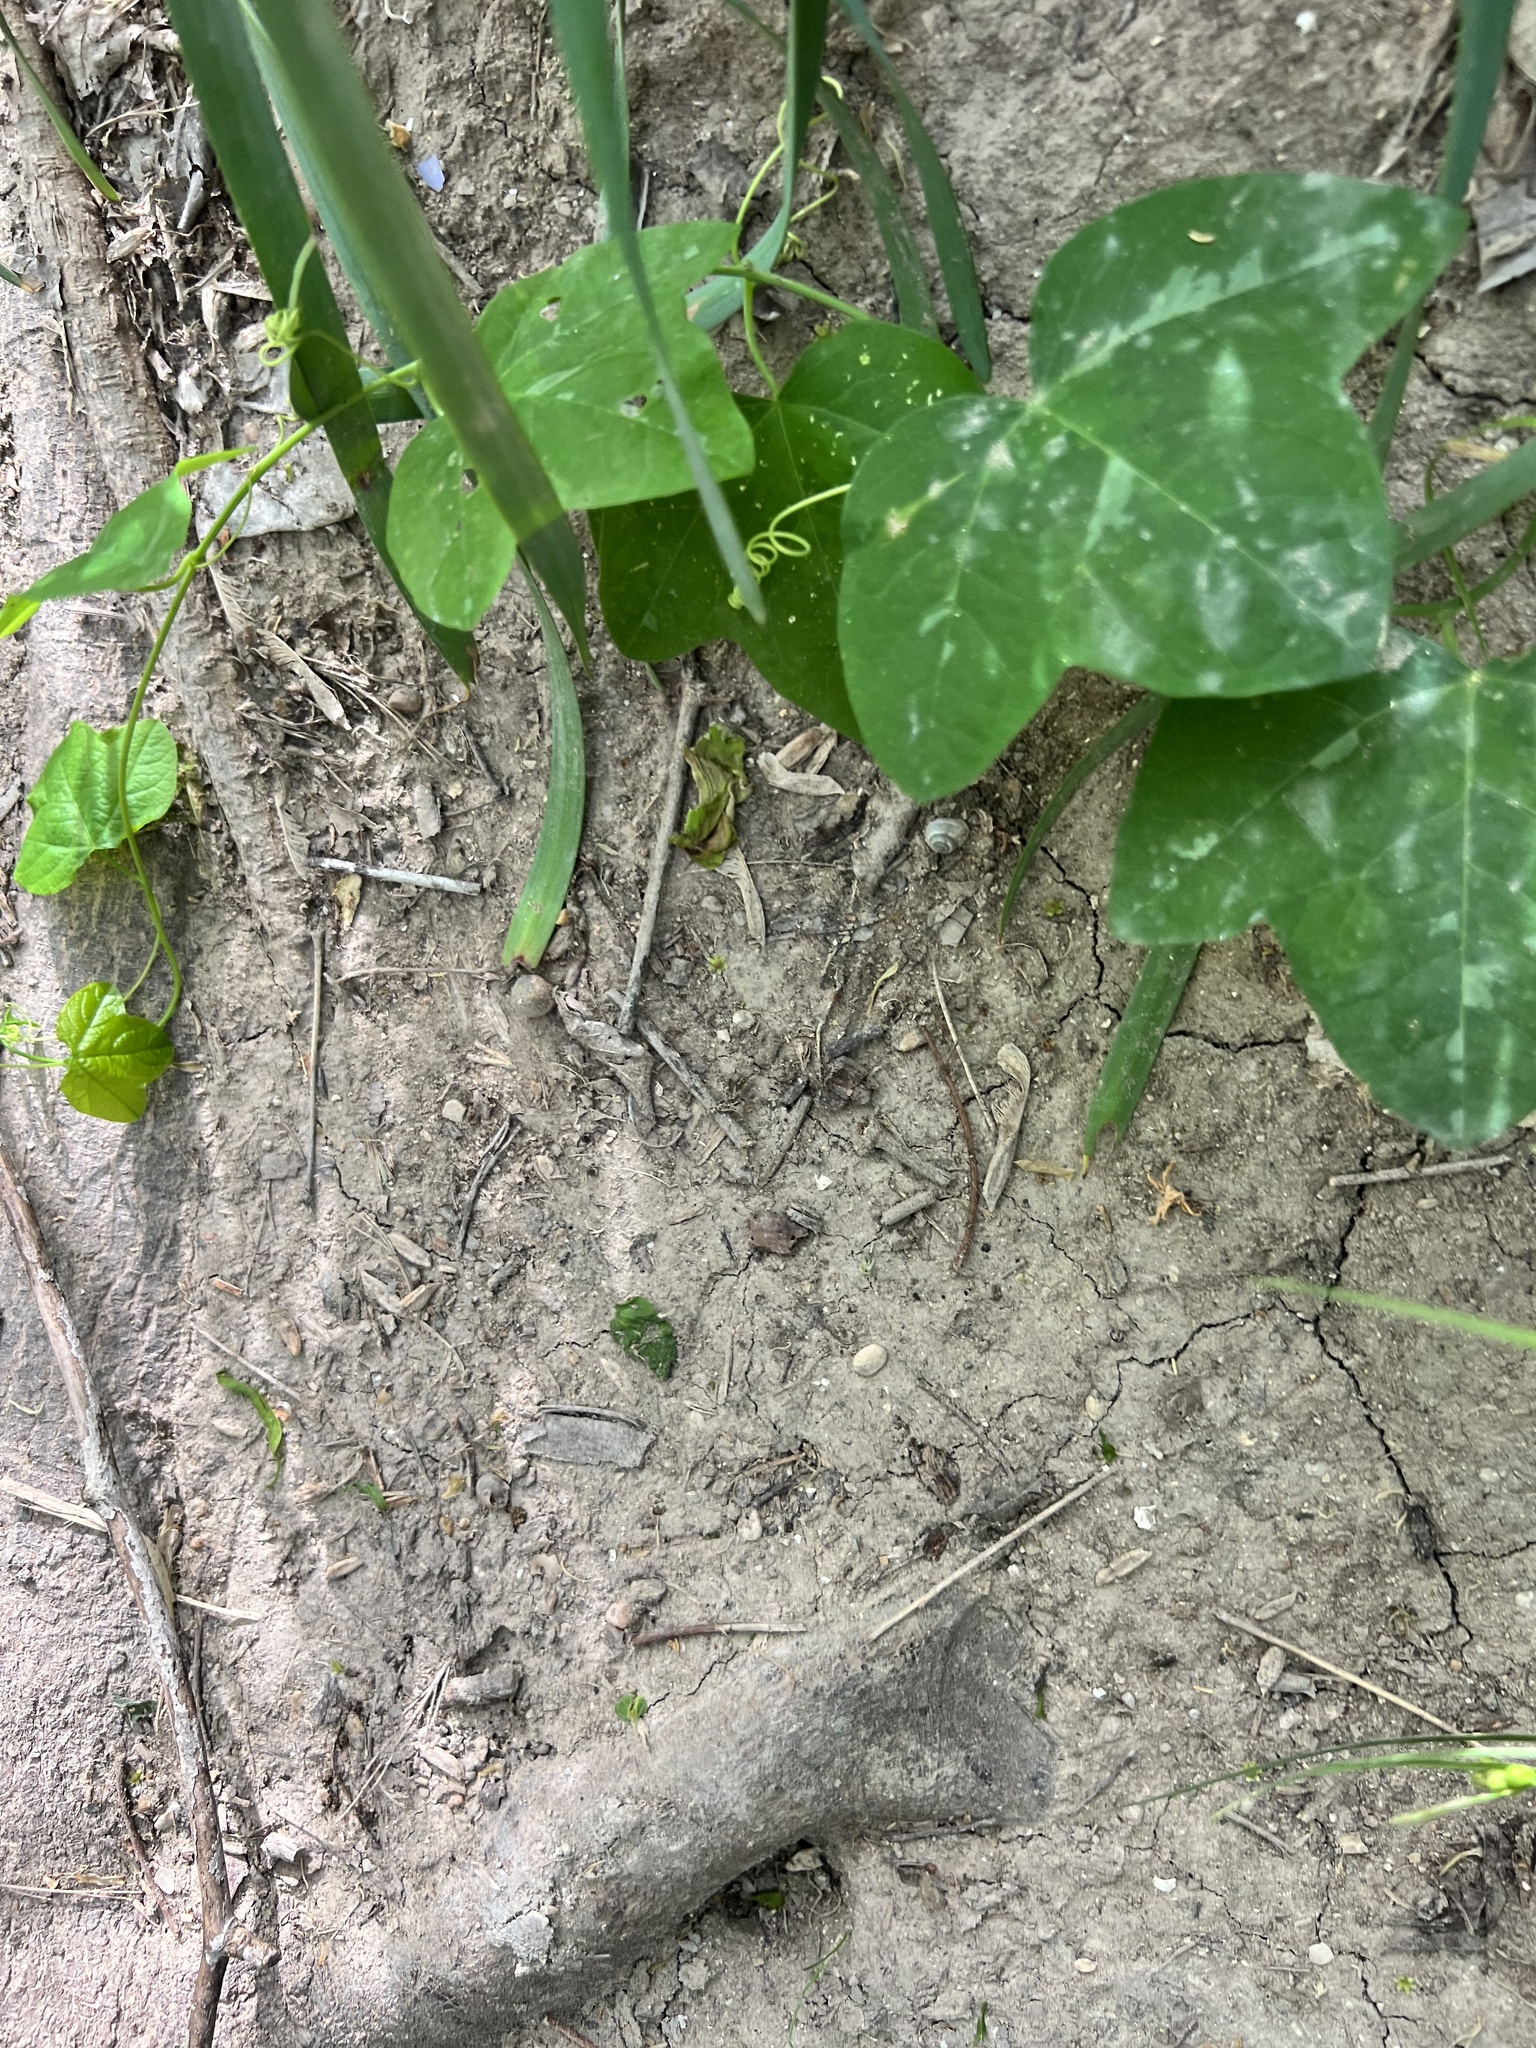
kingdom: Plantae
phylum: Tracheophyta
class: Magnoliopsida
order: Malpighiales
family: Passifloraceae
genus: Passiflora
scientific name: Passiflora lutea
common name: Yellow passionflower
